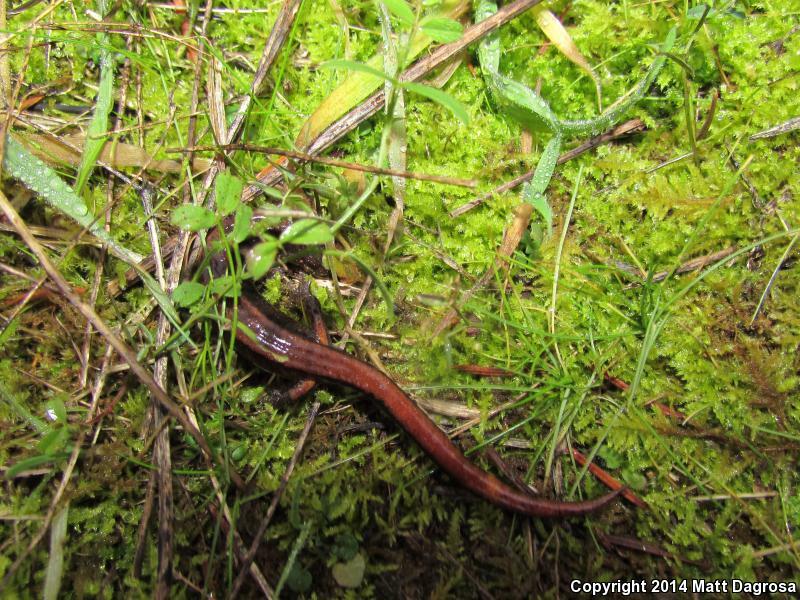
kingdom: Animalia
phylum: Chordata
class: Amphibia
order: Caudata
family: Plethodontidae
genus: Plethodon
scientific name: Plethodon vehiculum
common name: Western red-backed salamander
